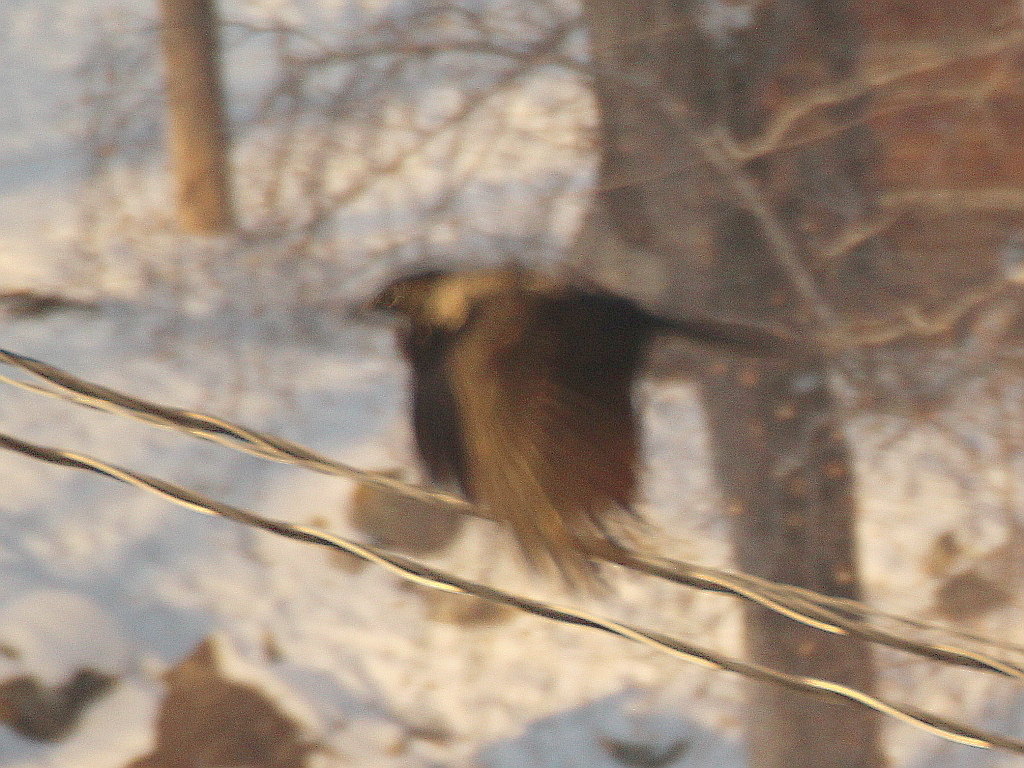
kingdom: Animalia
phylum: Chordata
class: Aves
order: Passeriformes
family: Corvidae
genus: Corvus
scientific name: Corvus cornix
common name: Hooded crow
